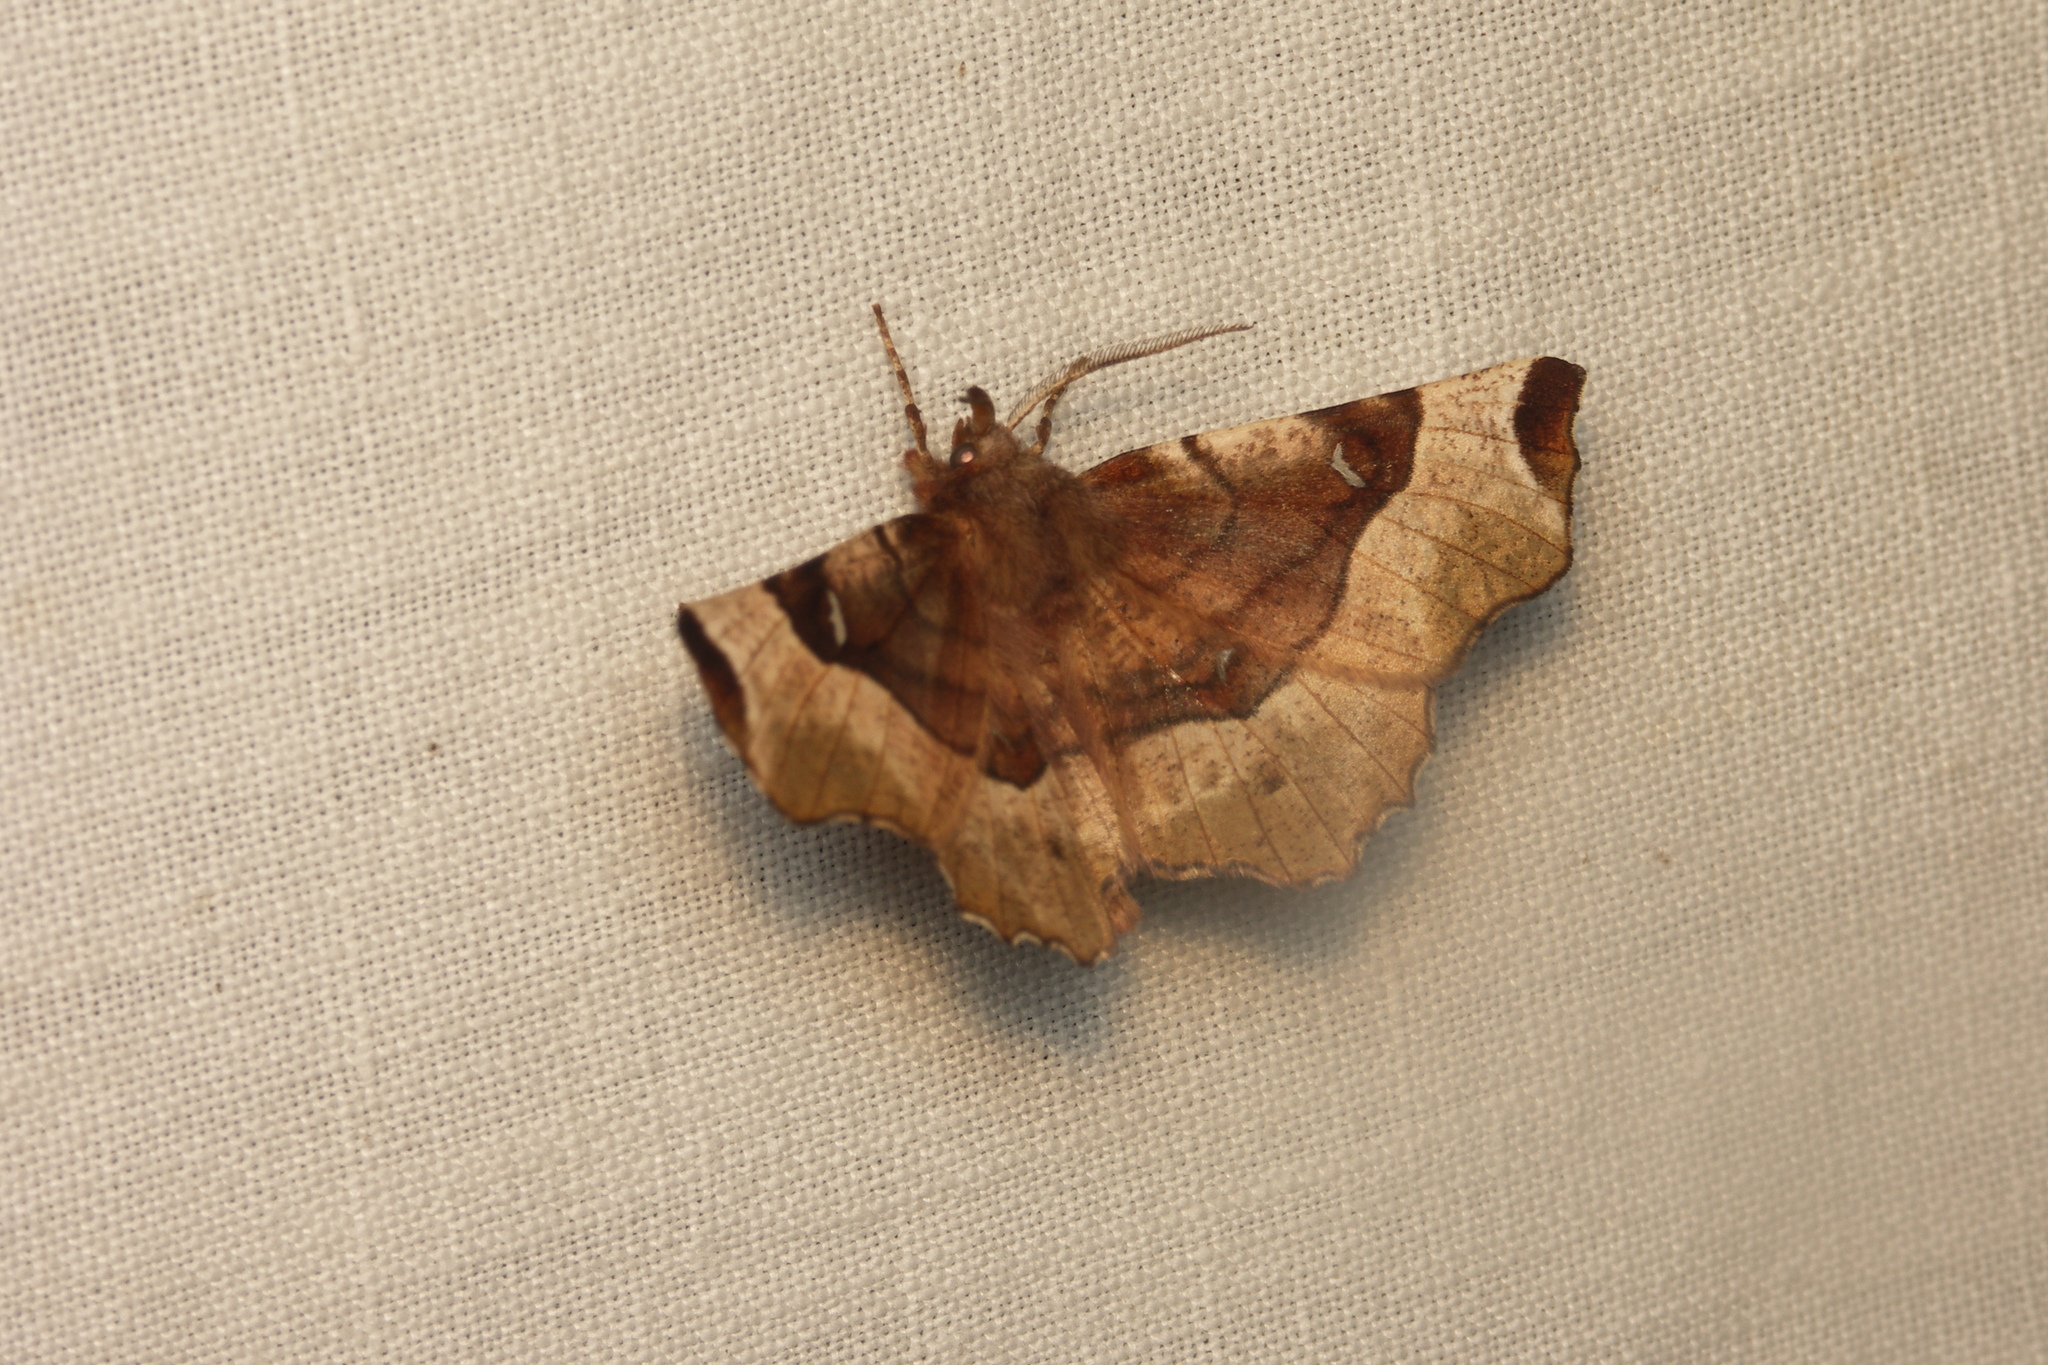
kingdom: Animalia
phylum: Arthropoda
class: Insecta
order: Lepidoptera
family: Geometridae
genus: Selenia
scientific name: Selenia tetralunaria
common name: Purple thorn
